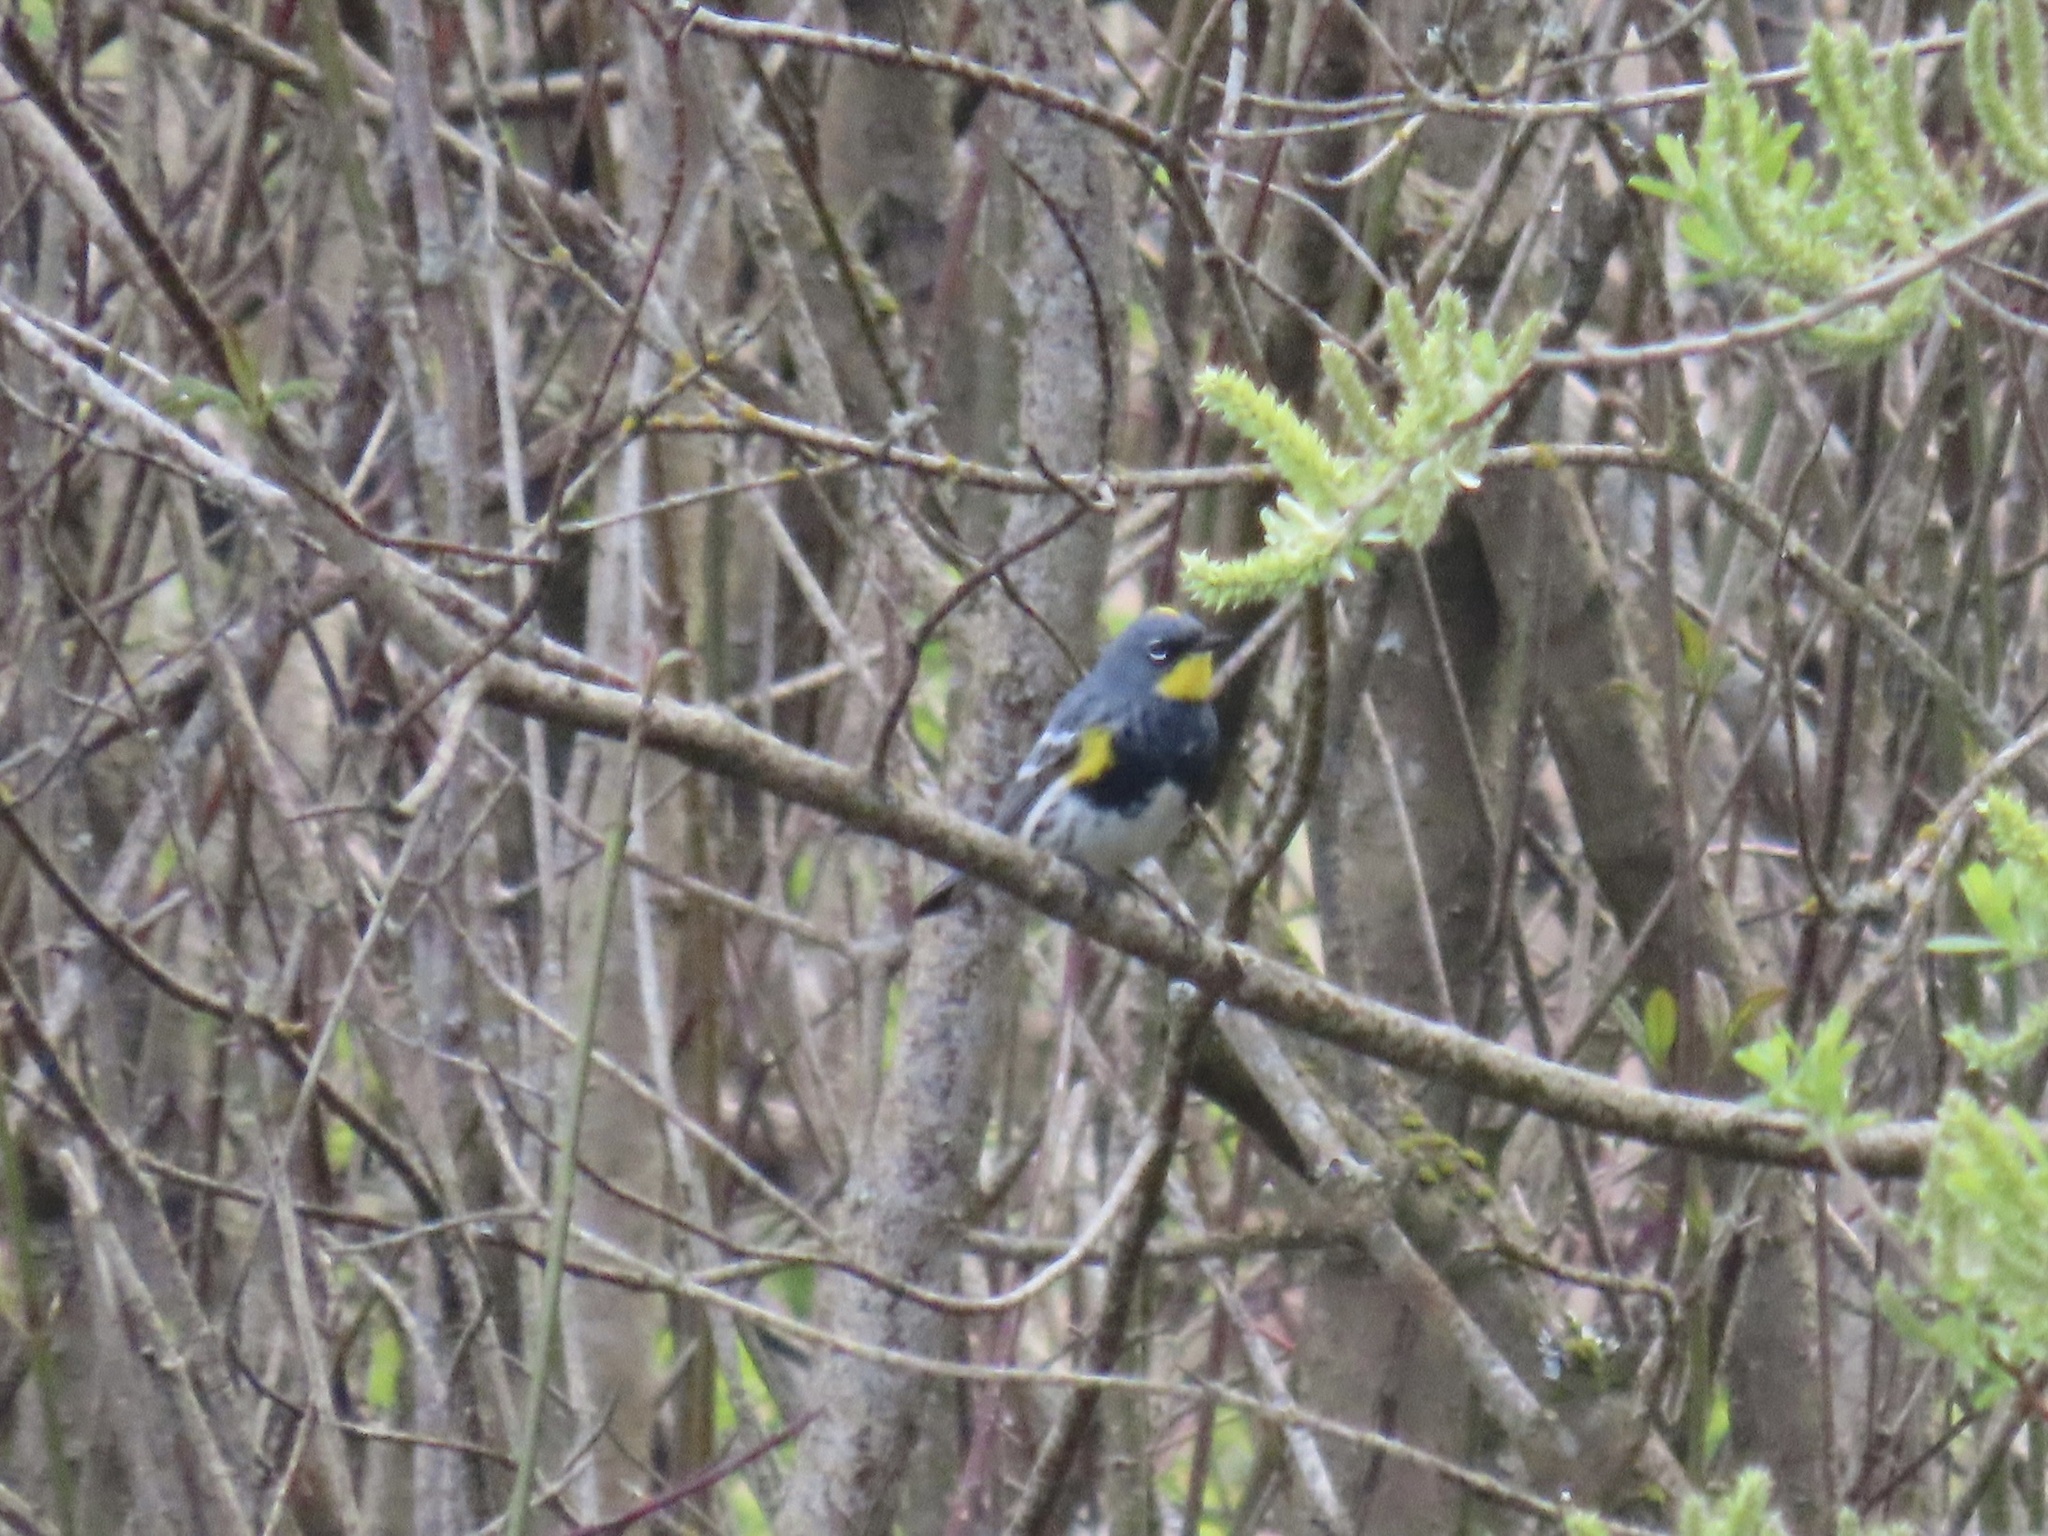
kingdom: Animalia
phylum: Chordata
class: Aves
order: Passeriformes
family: Parulidae
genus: Setophaga
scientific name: Setophaga coronata
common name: Myrtle warbler
